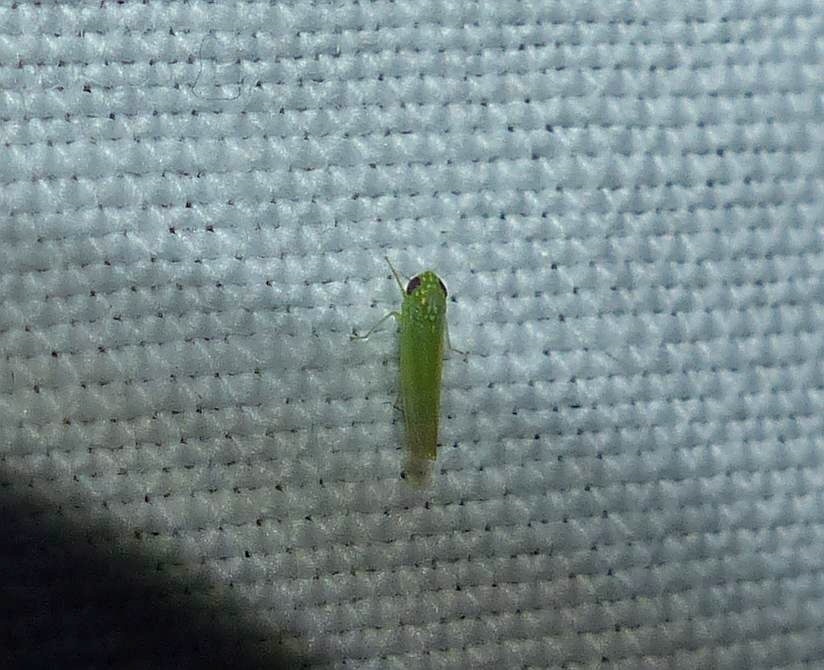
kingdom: Animalia
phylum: Arthropoda
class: Insecta
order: Hemiptera
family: Cicadellidae
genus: Empoasca
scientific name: Empoasca fabae
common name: Potato leafhopper
